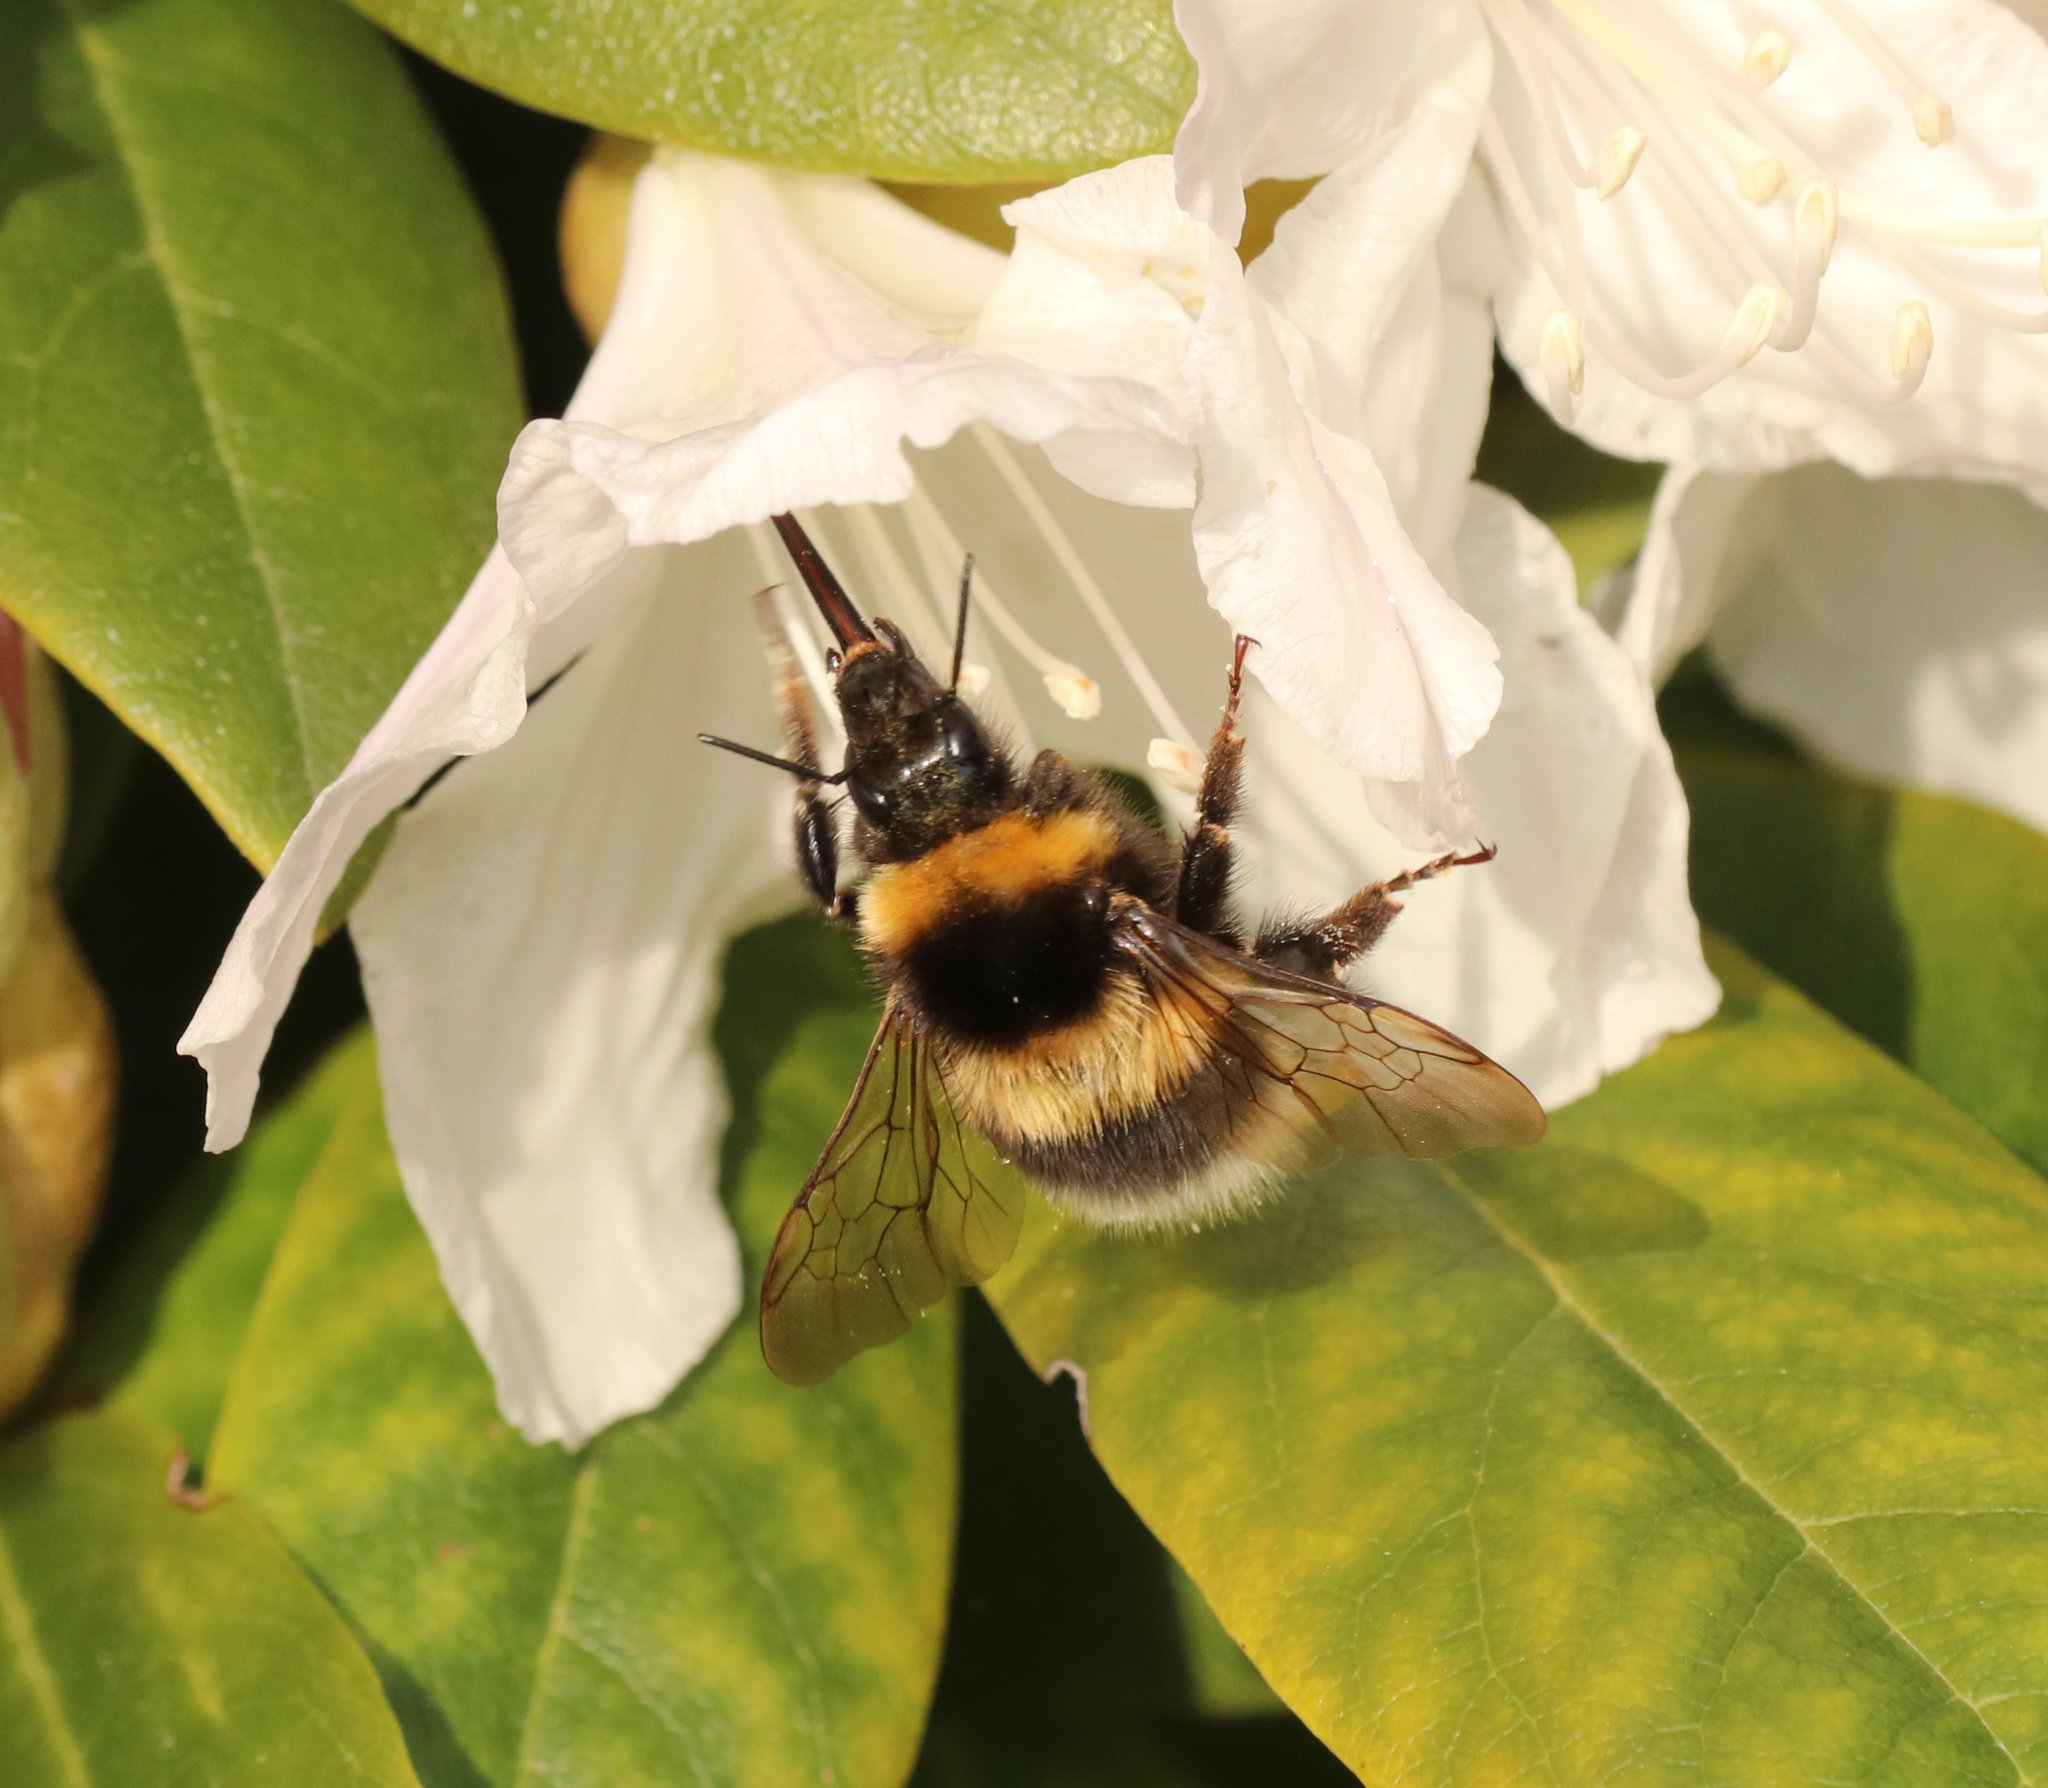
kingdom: Animalia
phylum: Arthropoda
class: Insecta
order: Hymenoptera
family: Apidae
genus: Bombus
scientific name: Bombus hortorum
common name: Garden bumblebee
